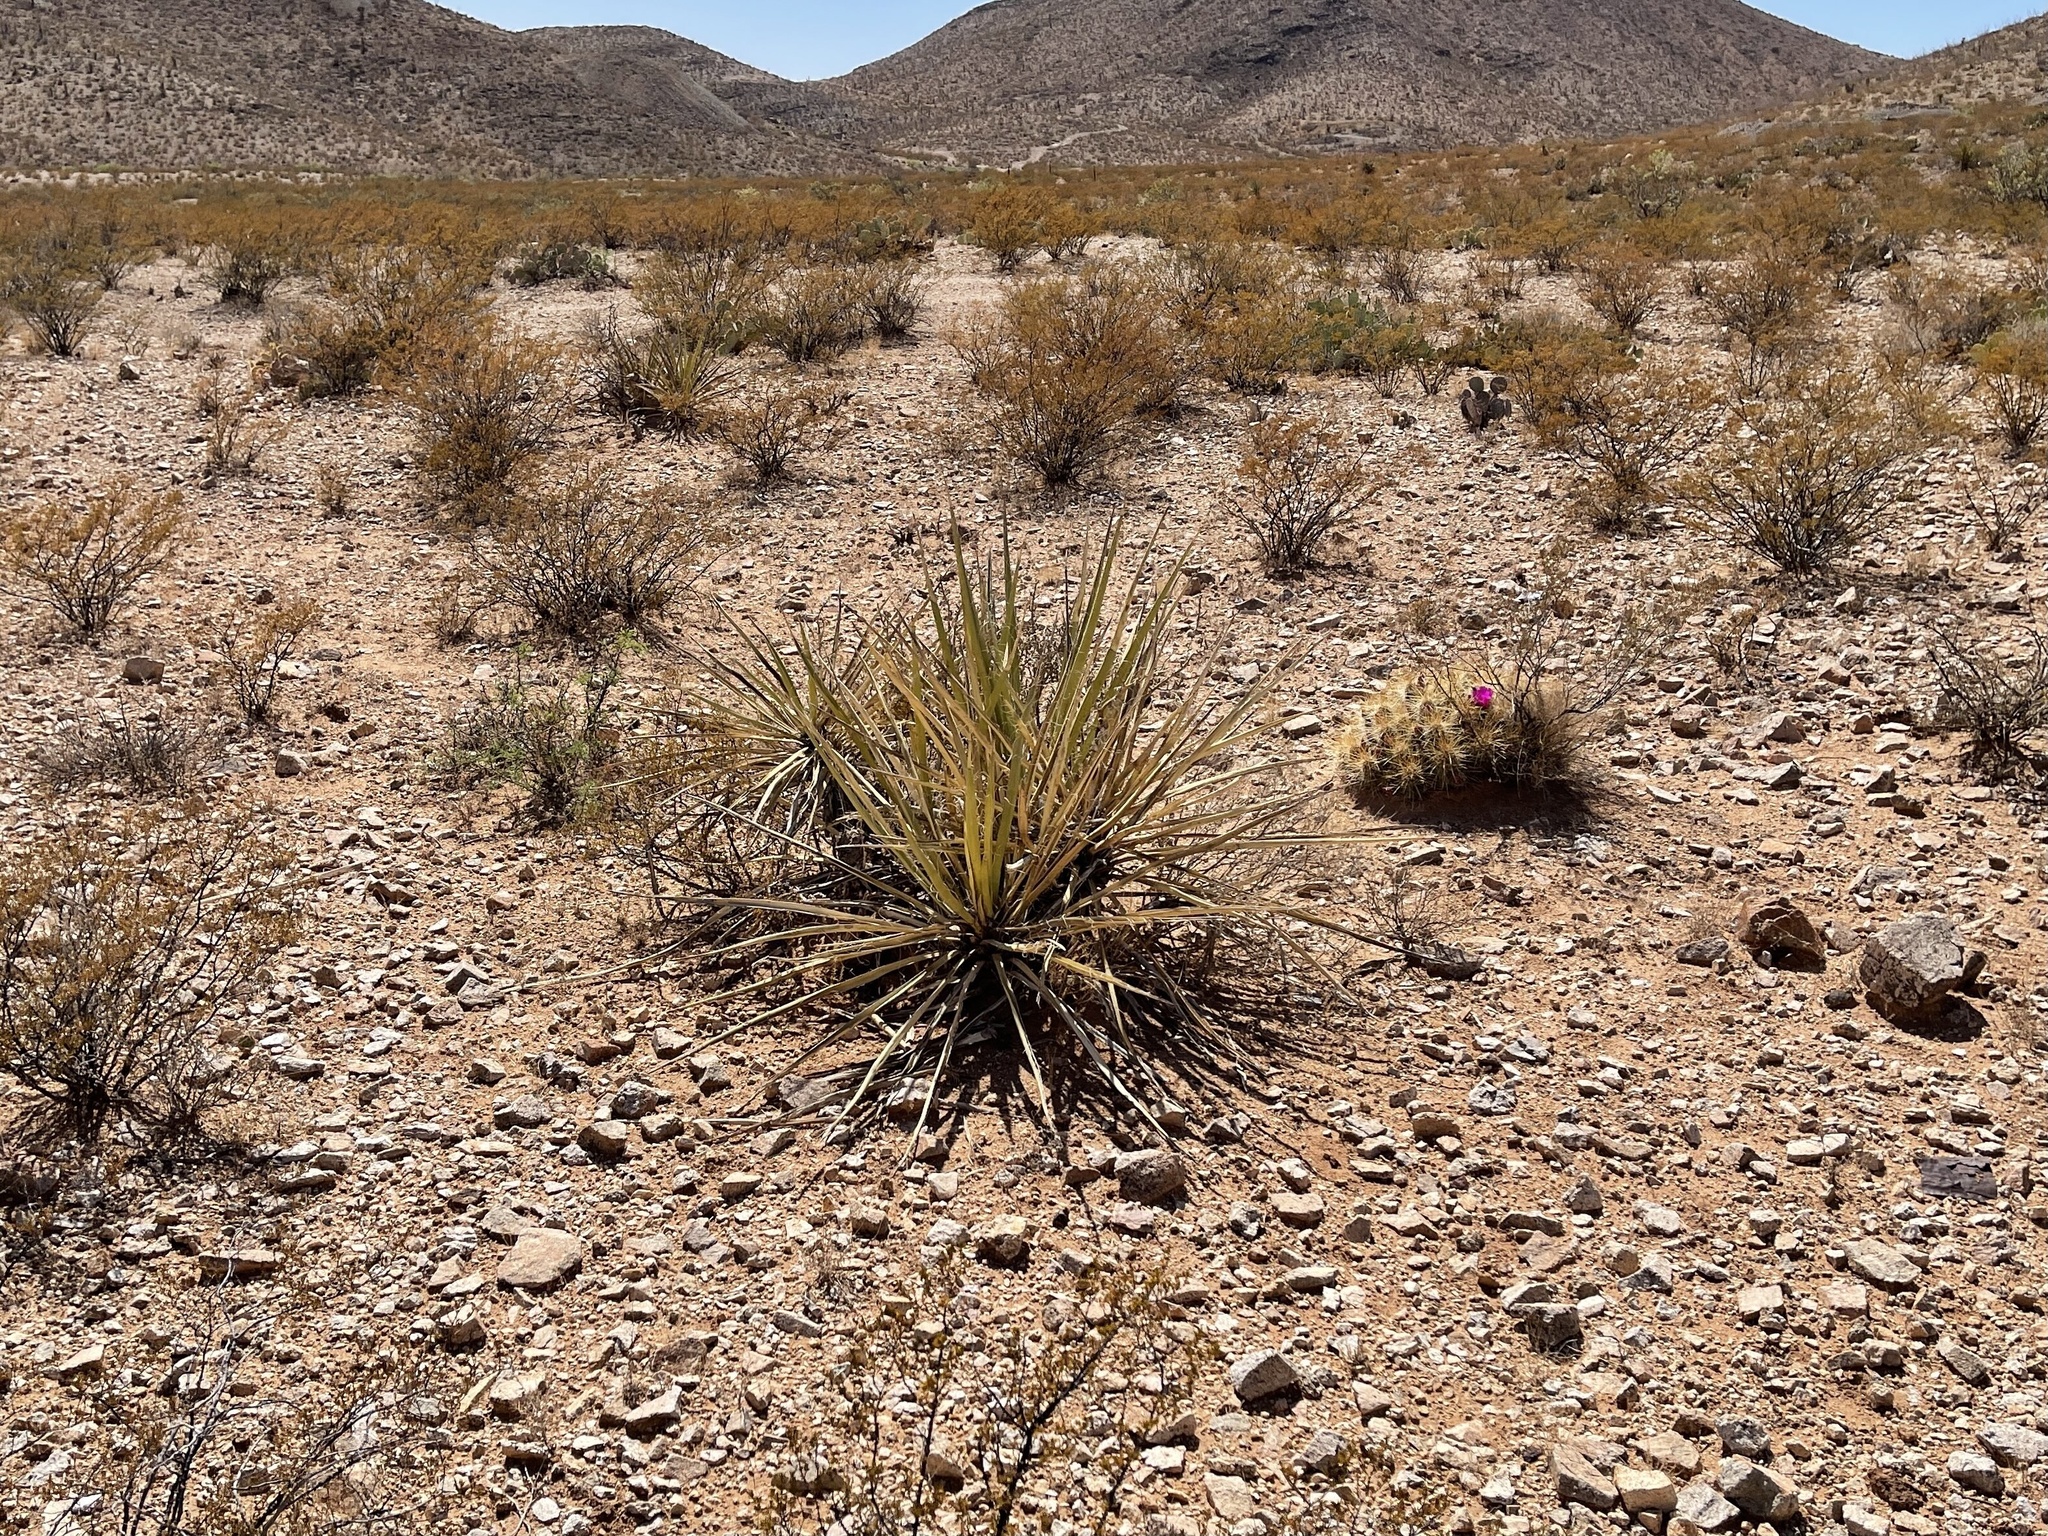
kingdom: Plantae
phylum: Tracheophyta
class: Liliopsida
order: Asparagales
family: Asparagaceae
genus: Yucca
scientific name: Yucca baccata
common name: Banana yucca
